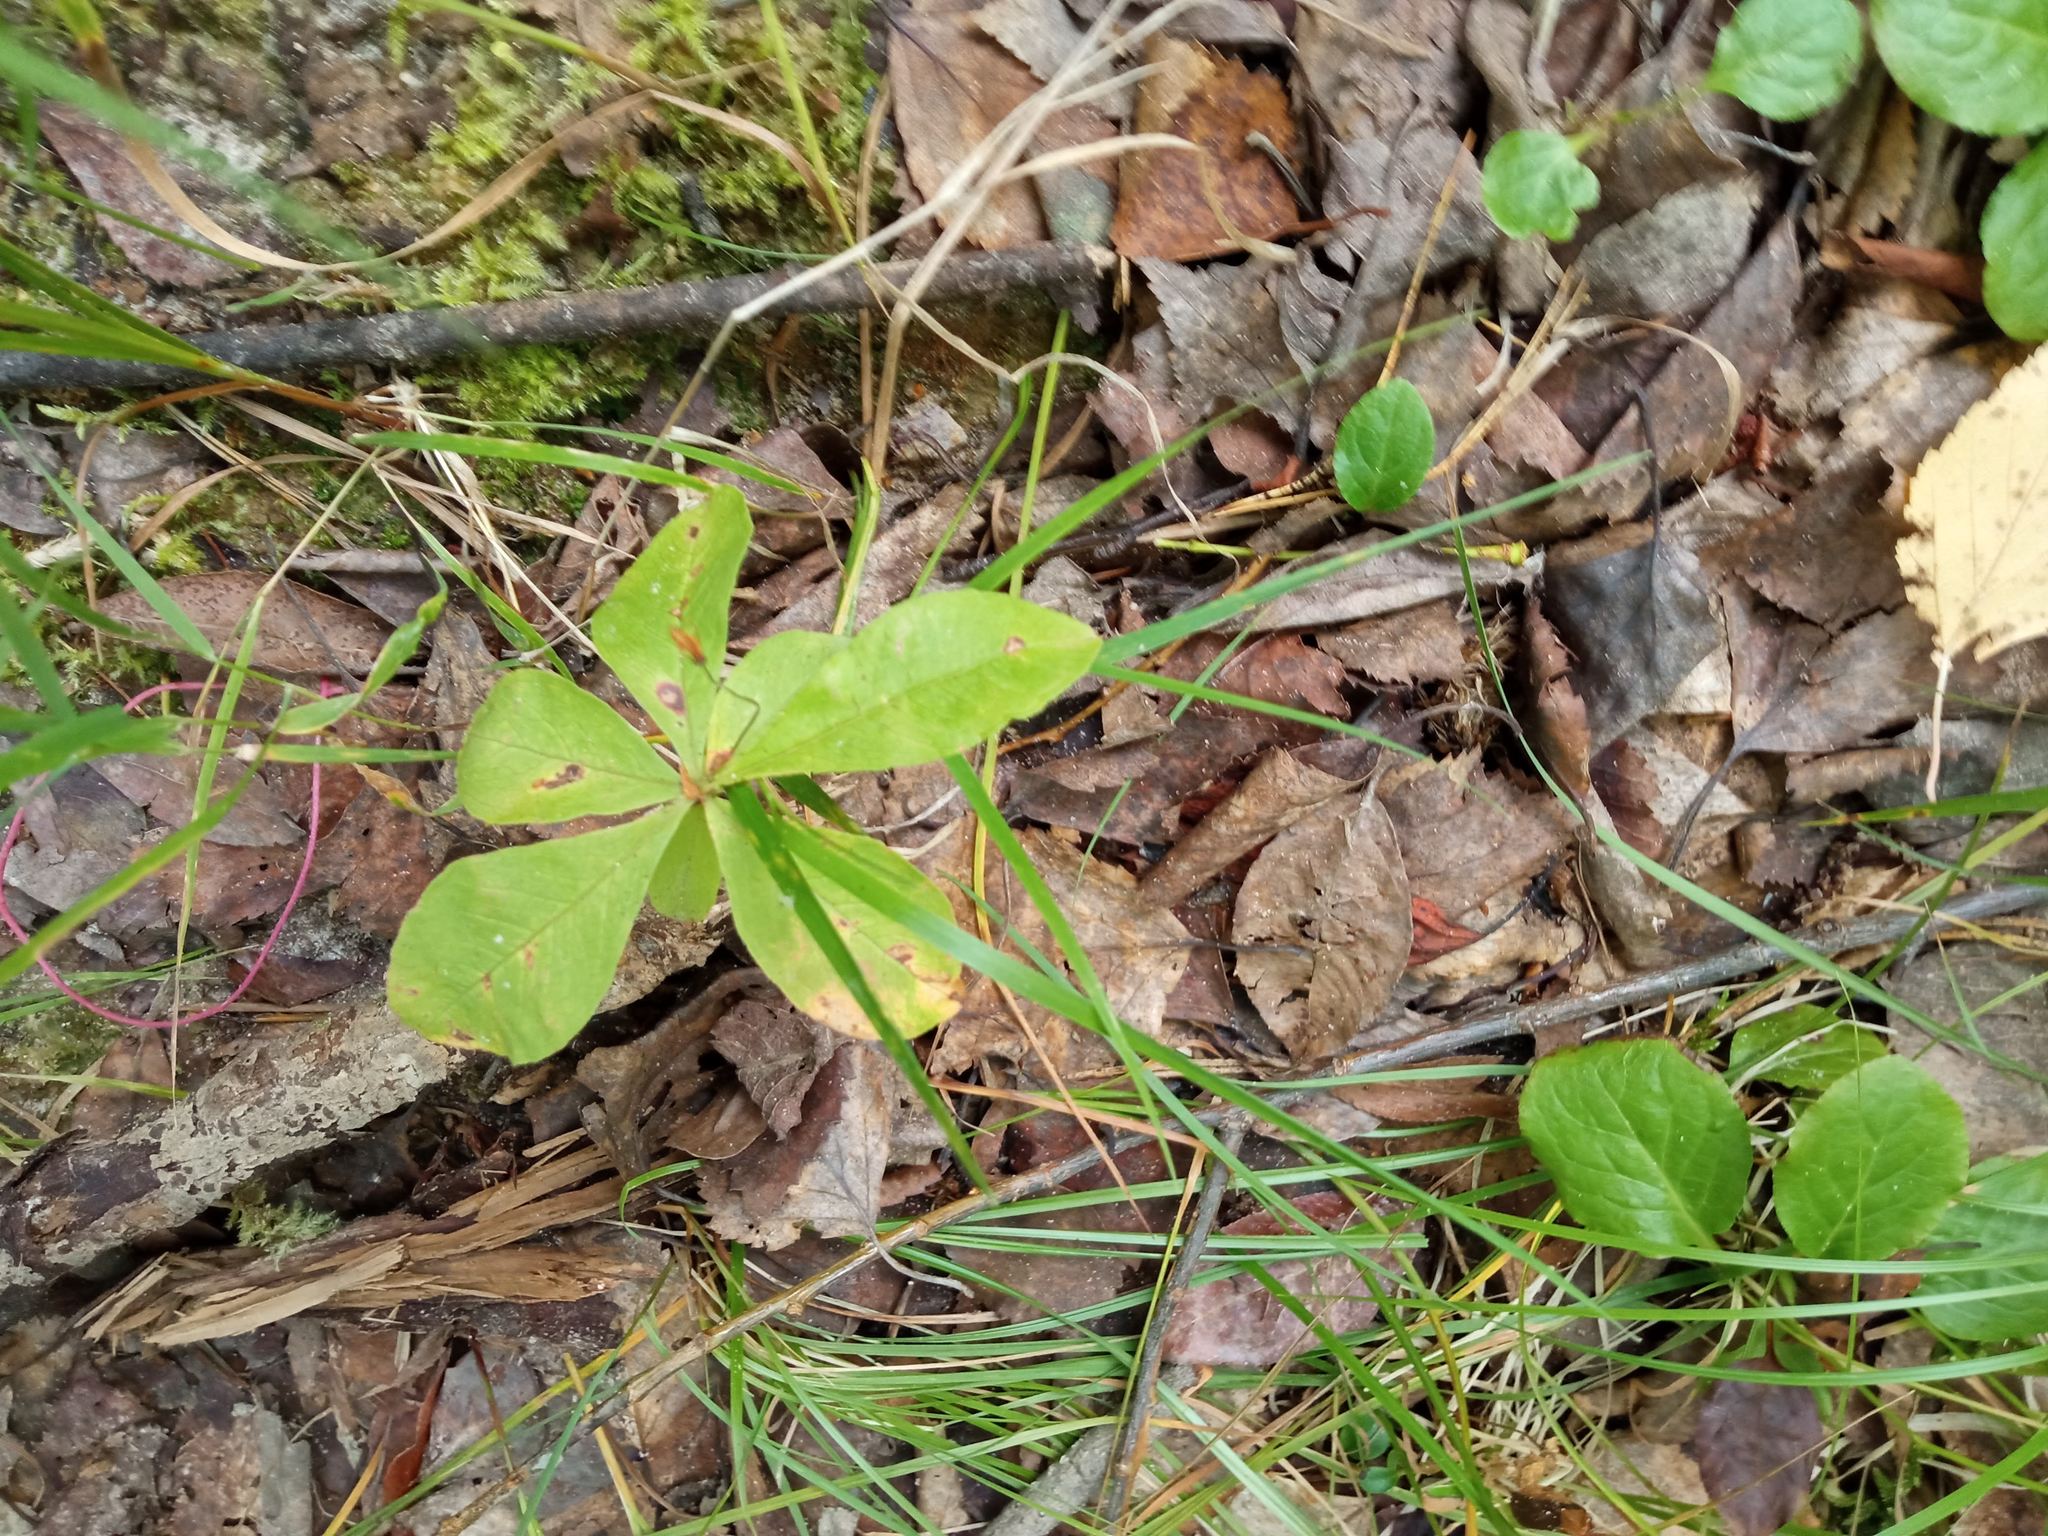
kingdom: Plantae
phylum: Tracheophyta
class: Magnoliopsida
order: Ericales
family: Primulaceae
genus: Lysimachia
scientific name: Lysimachia europaea
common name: Arctic starflower
